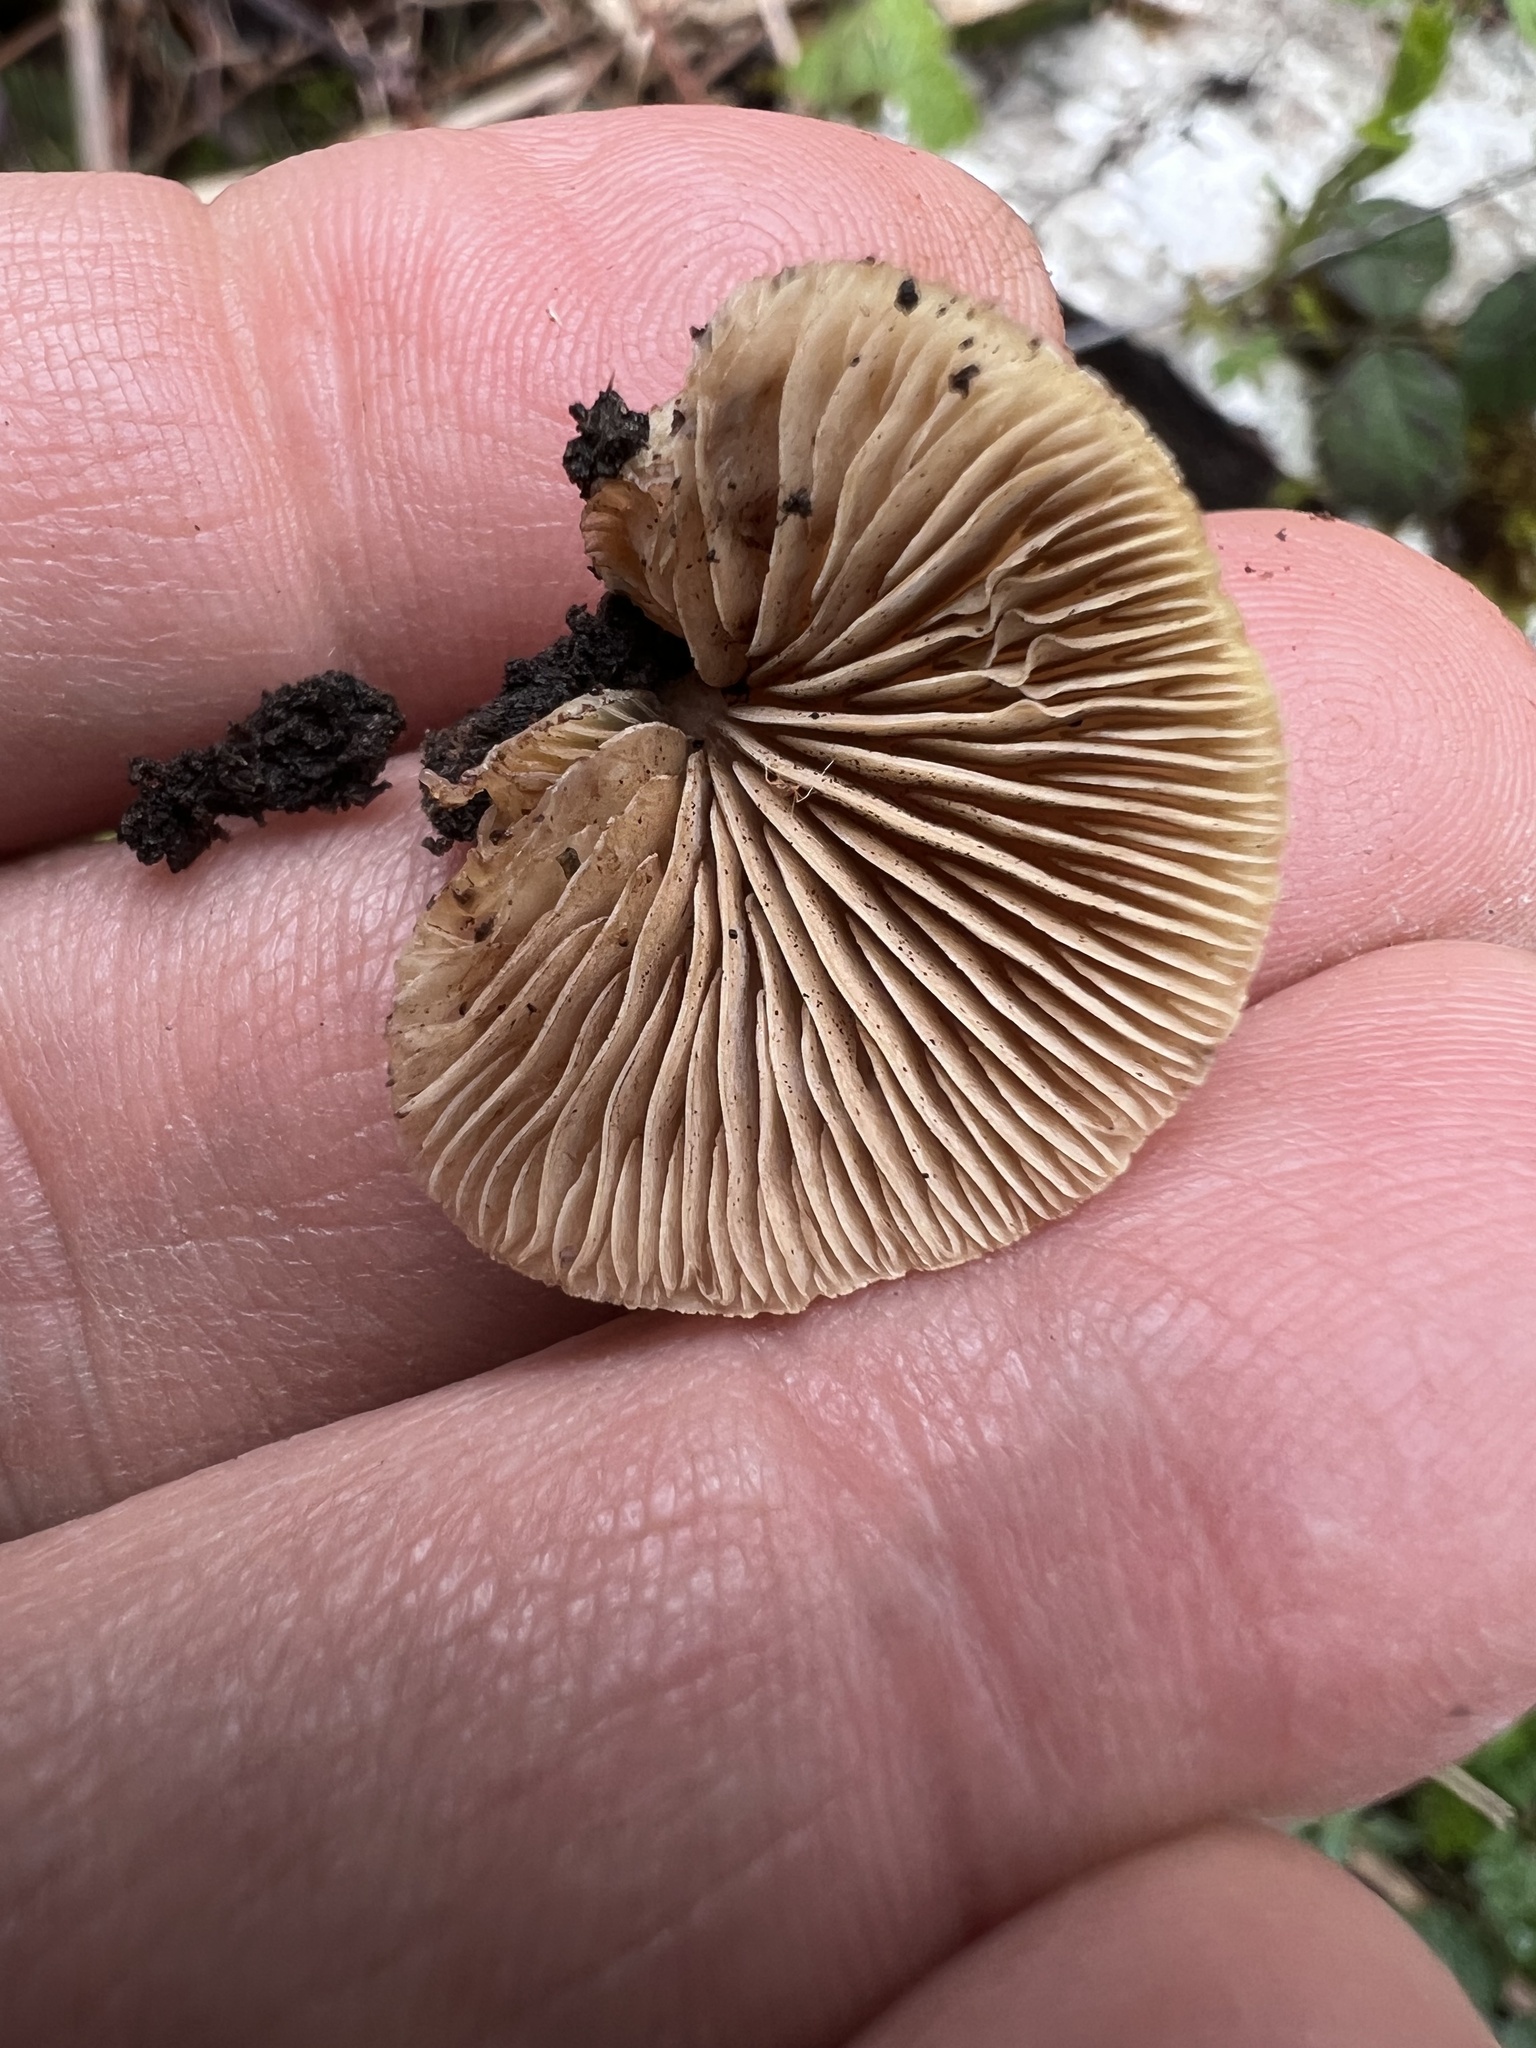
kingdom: Fungi
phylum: Basidiomycota
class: Agaricomycetes
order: Agaricales
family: Crepidotaceae
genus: Crepidotus
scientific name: Crepidotus calolepis
